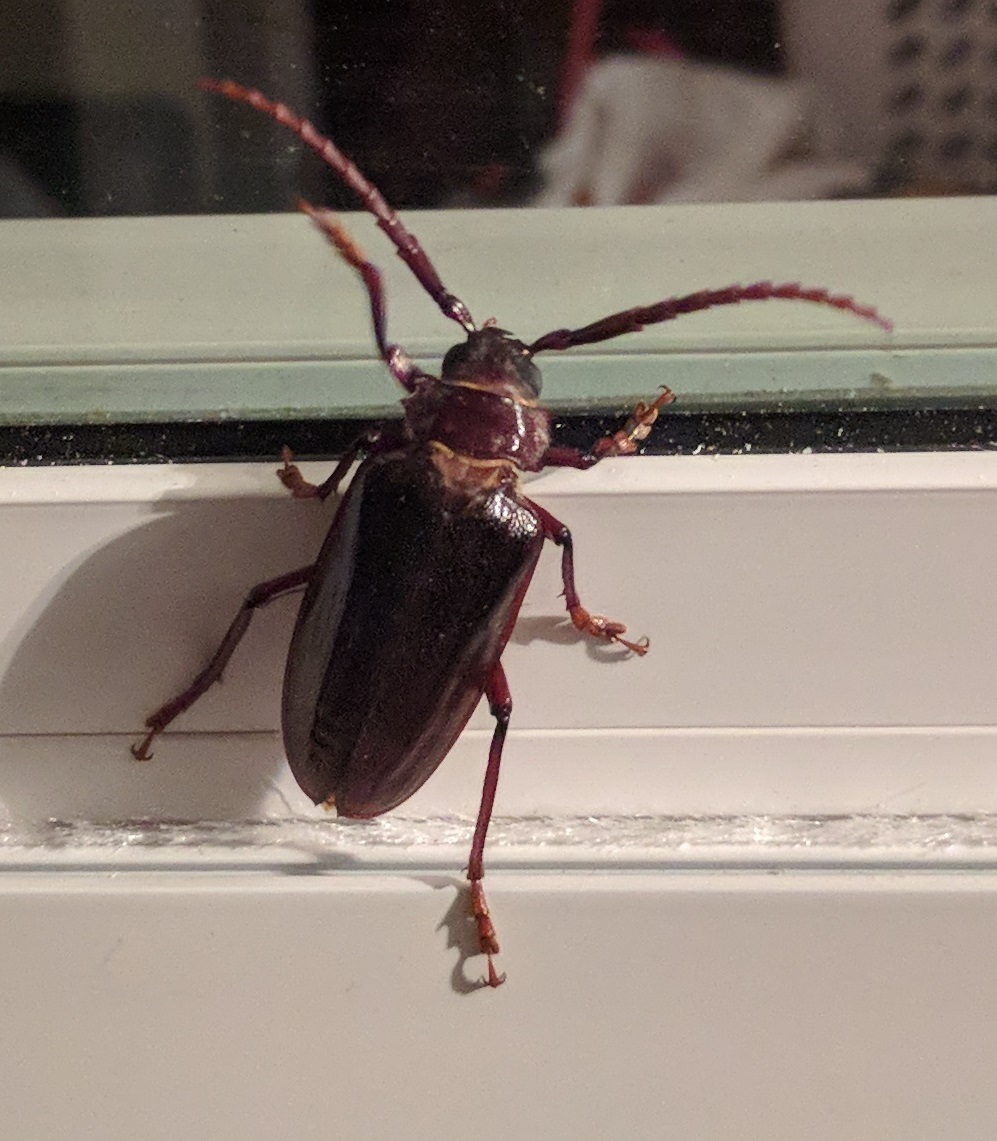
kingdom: Animalia
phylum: Arthropoda
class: Insecta
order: Coleoptera
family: Cerambycidae
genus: Prionus
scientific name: Prionus pocularis
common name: Tooth-necked longhorn beetle
